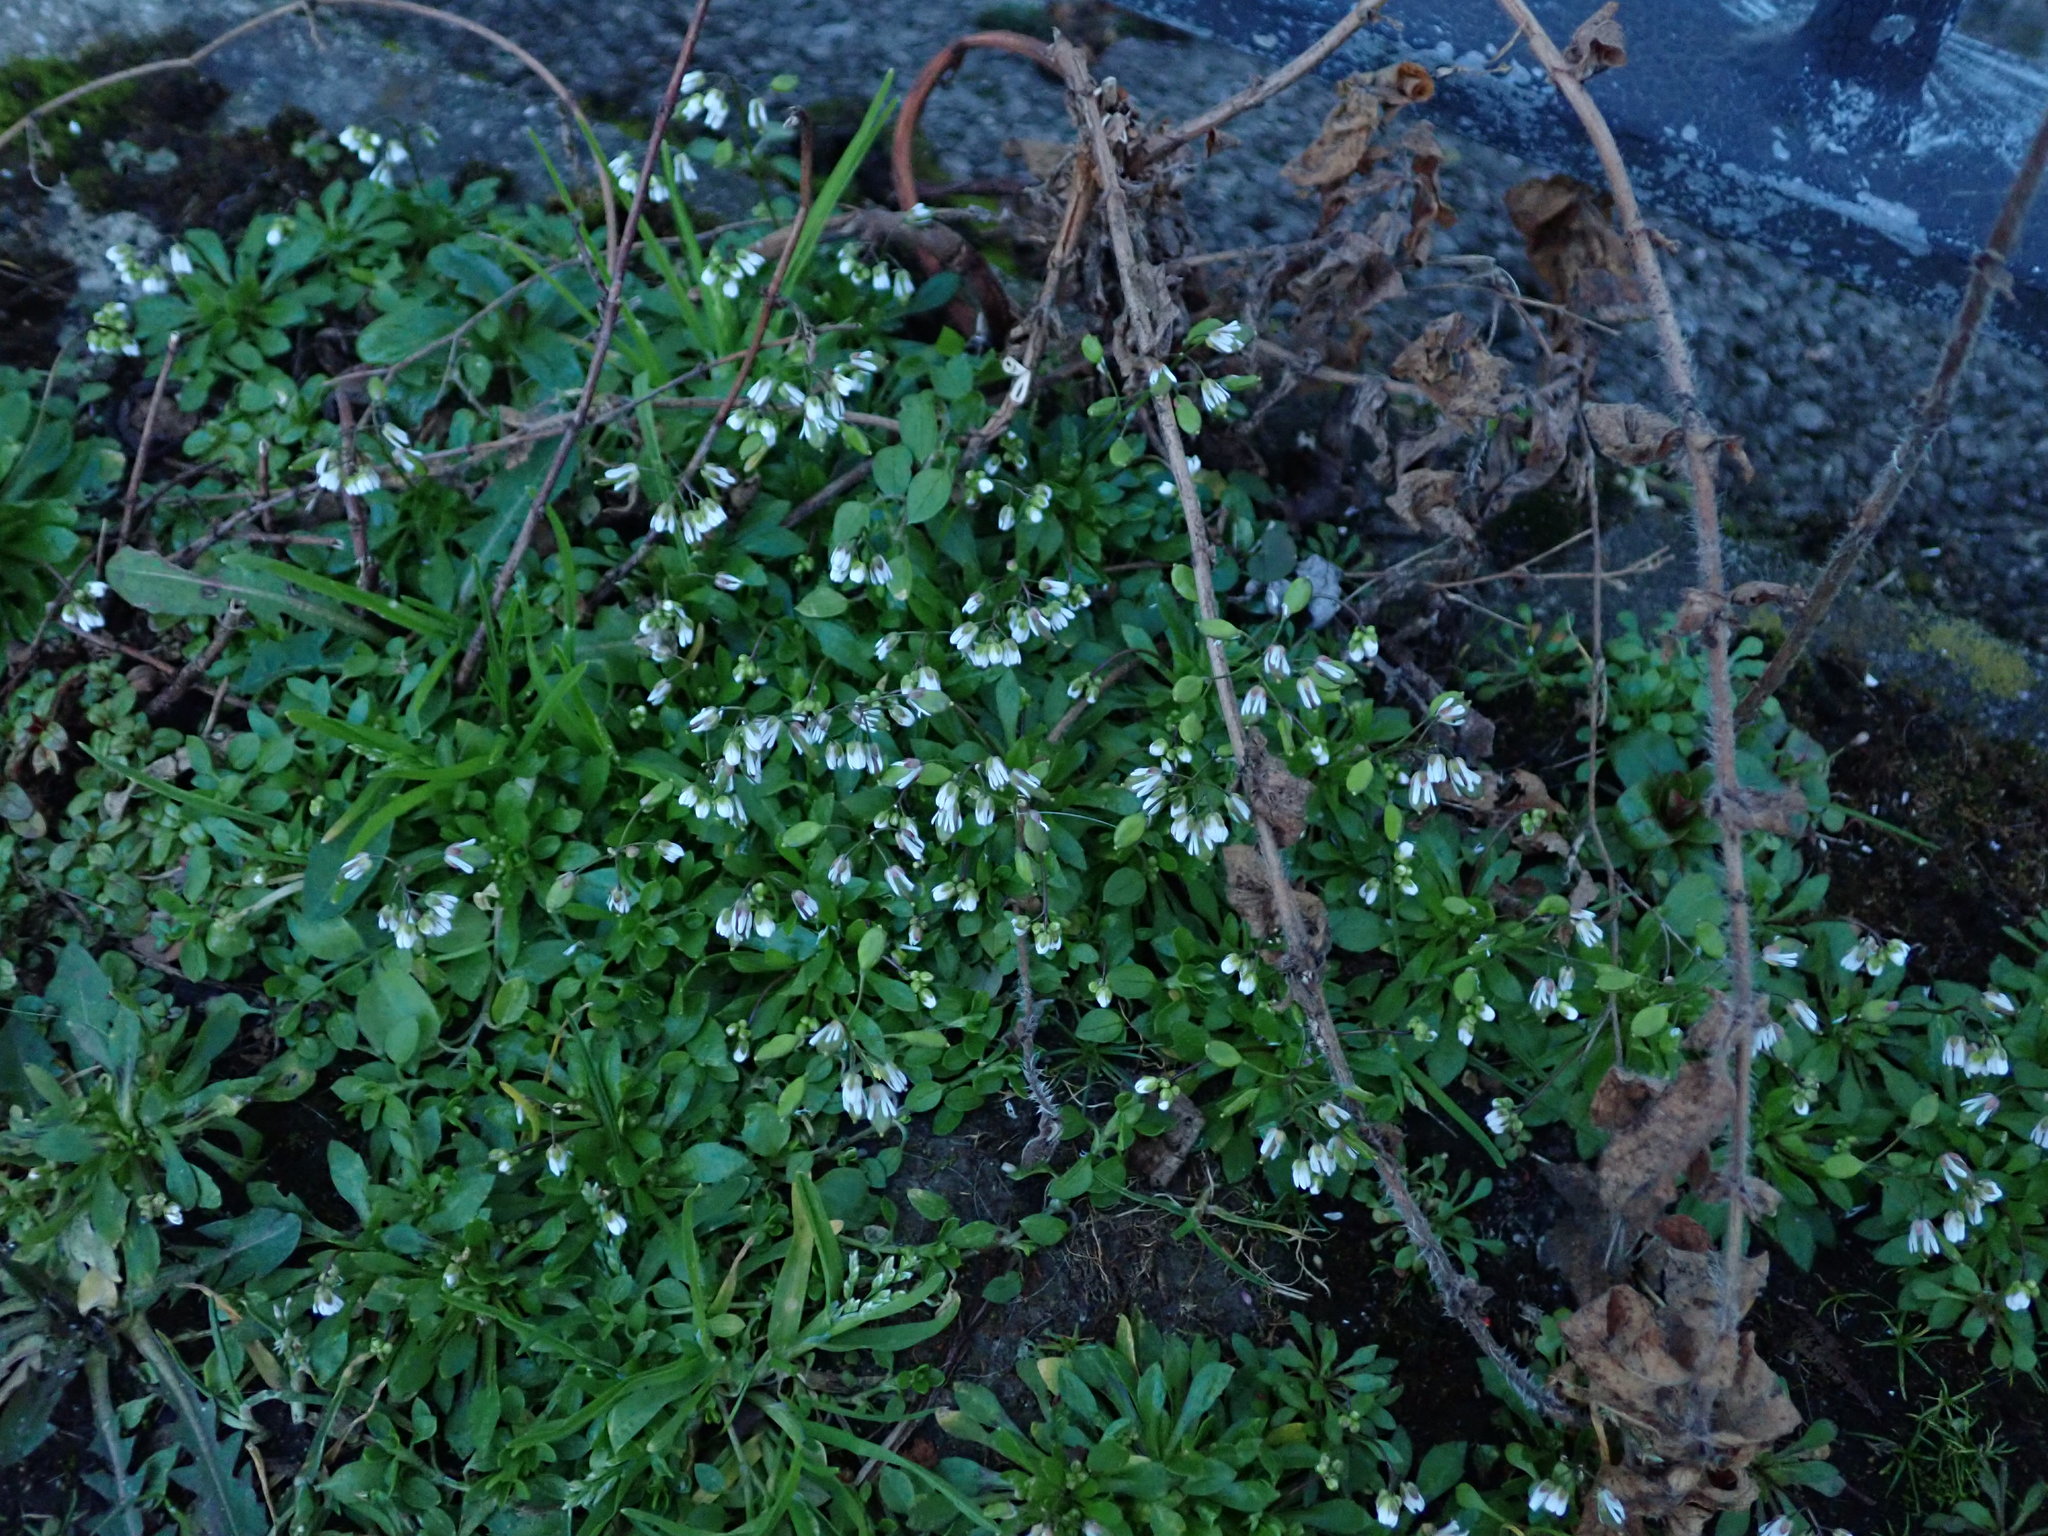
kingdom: Plantae
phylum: Tracheophyta
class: Magnoliopsida
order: Brassicales
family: Brassicaceae
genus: Draba
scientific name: Draba verna
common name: Spring draba
